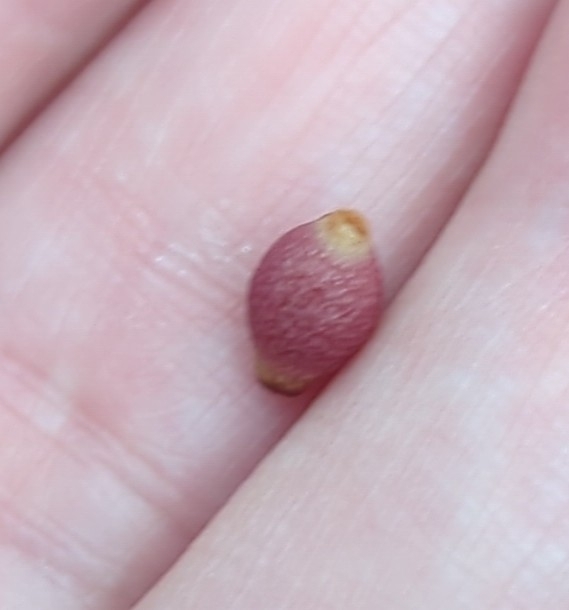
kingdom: Animalia
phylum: Arthropoda
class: Insecta
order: Hymenoptera
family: Cynipidae
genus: Andricus
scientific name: Andricus lustrans
